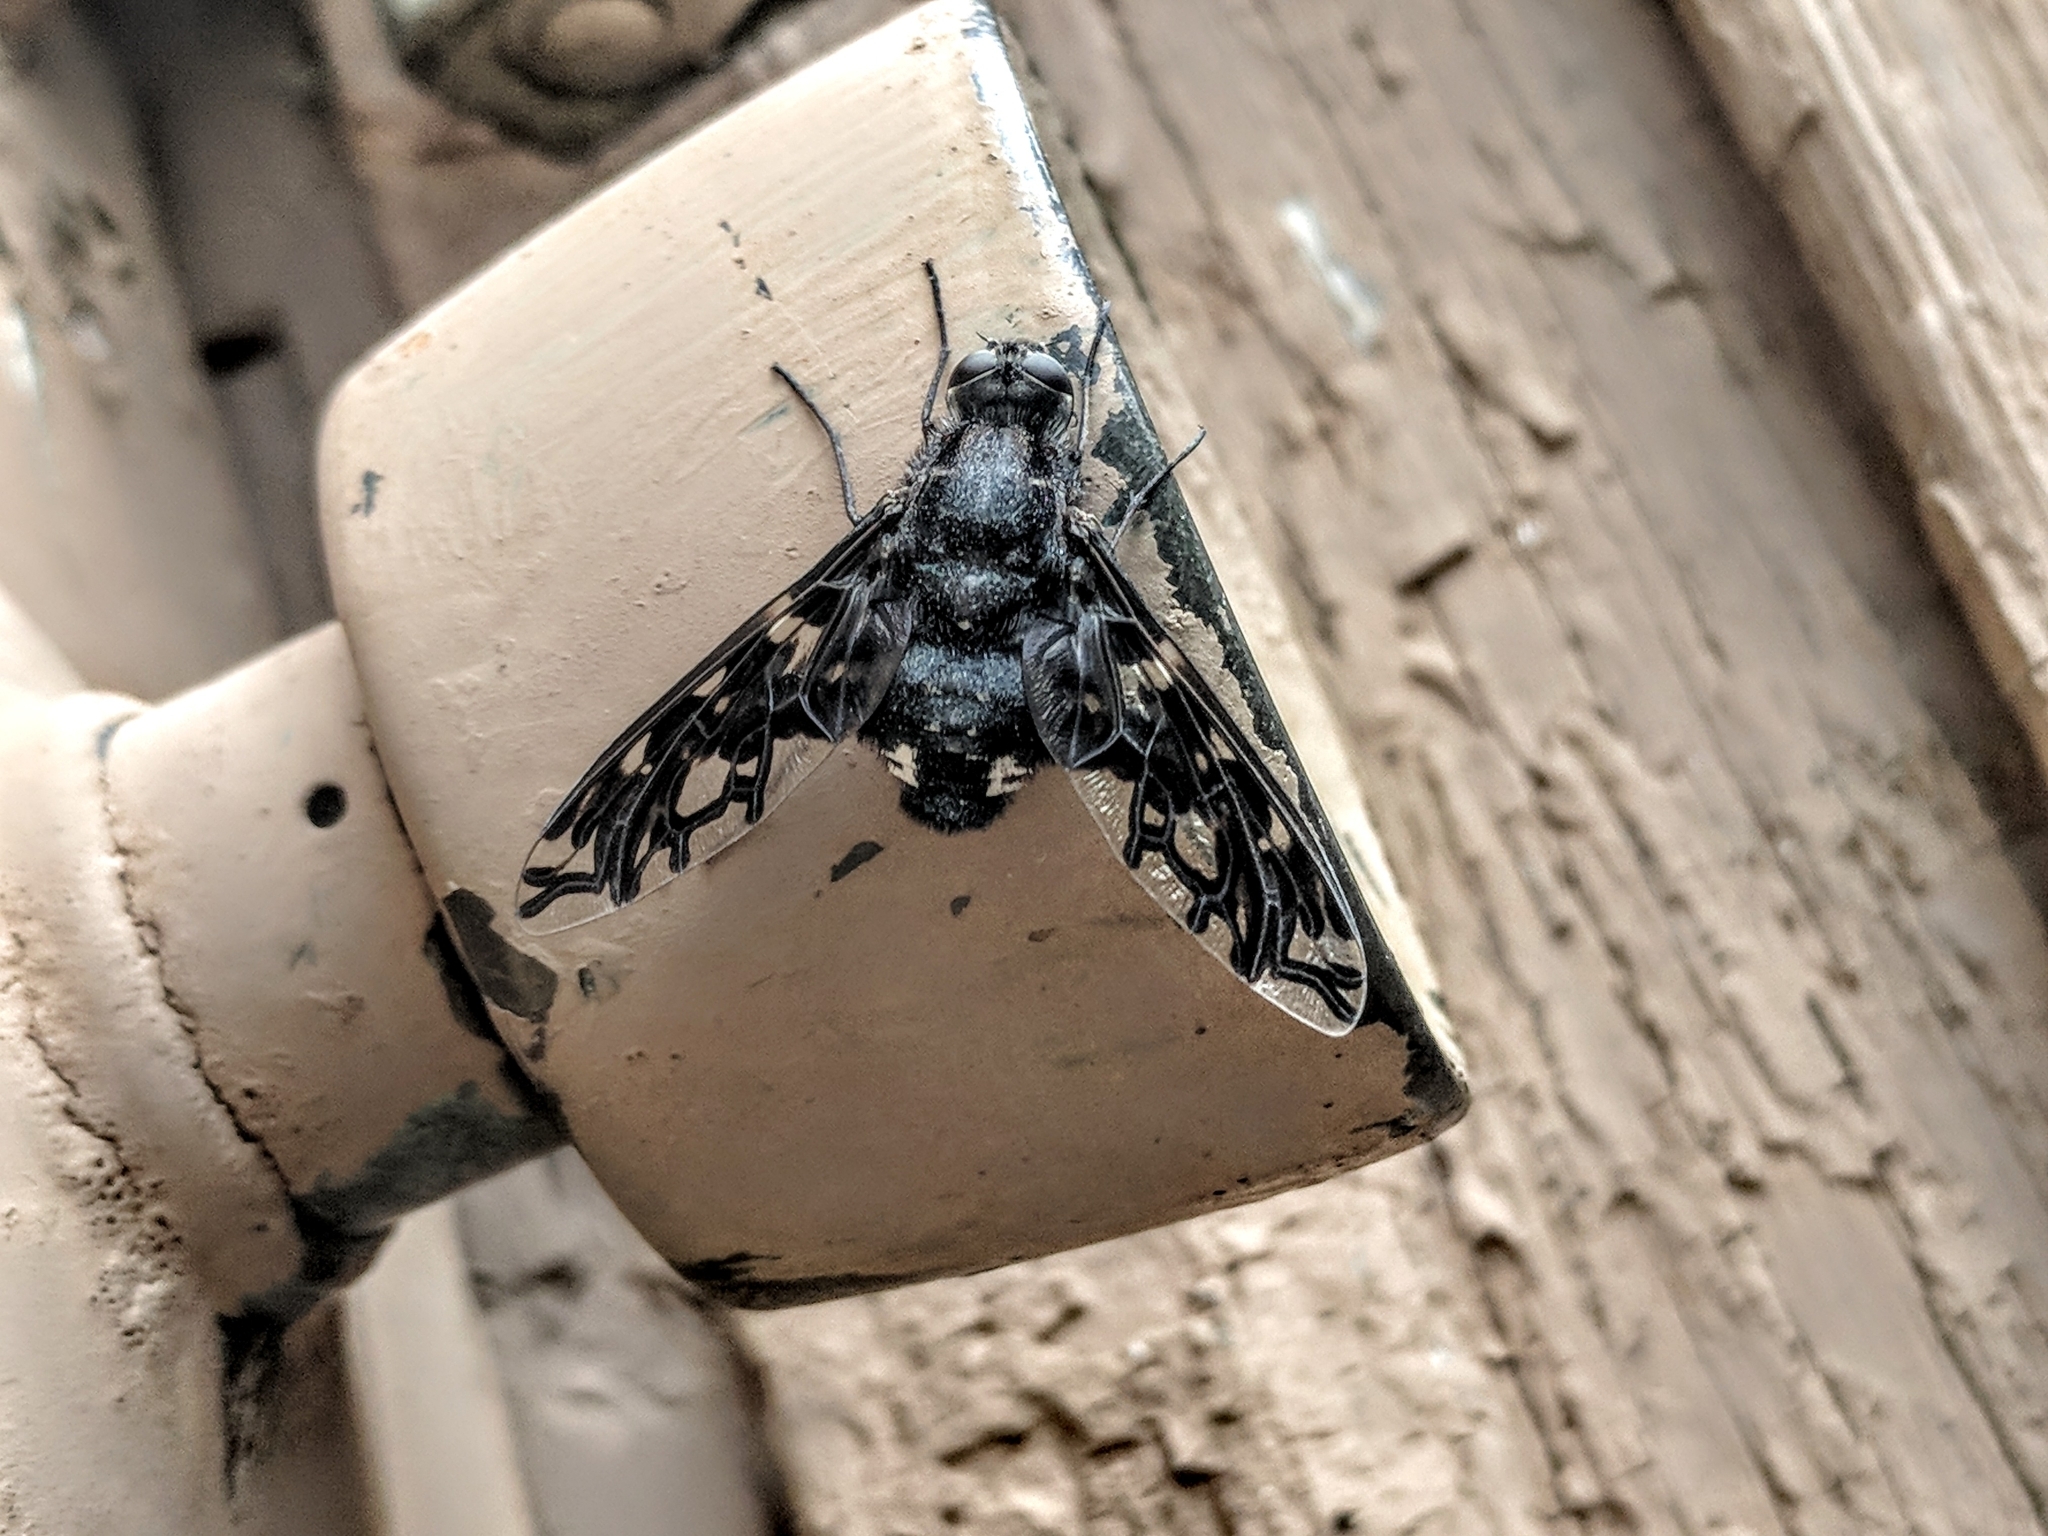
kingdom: Animalia
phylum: Arthropoda
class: Insecta
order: Diptera
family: Bombyliidae
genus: Xenox
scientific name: Xenox tigrinus
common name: Tiger bee fly
